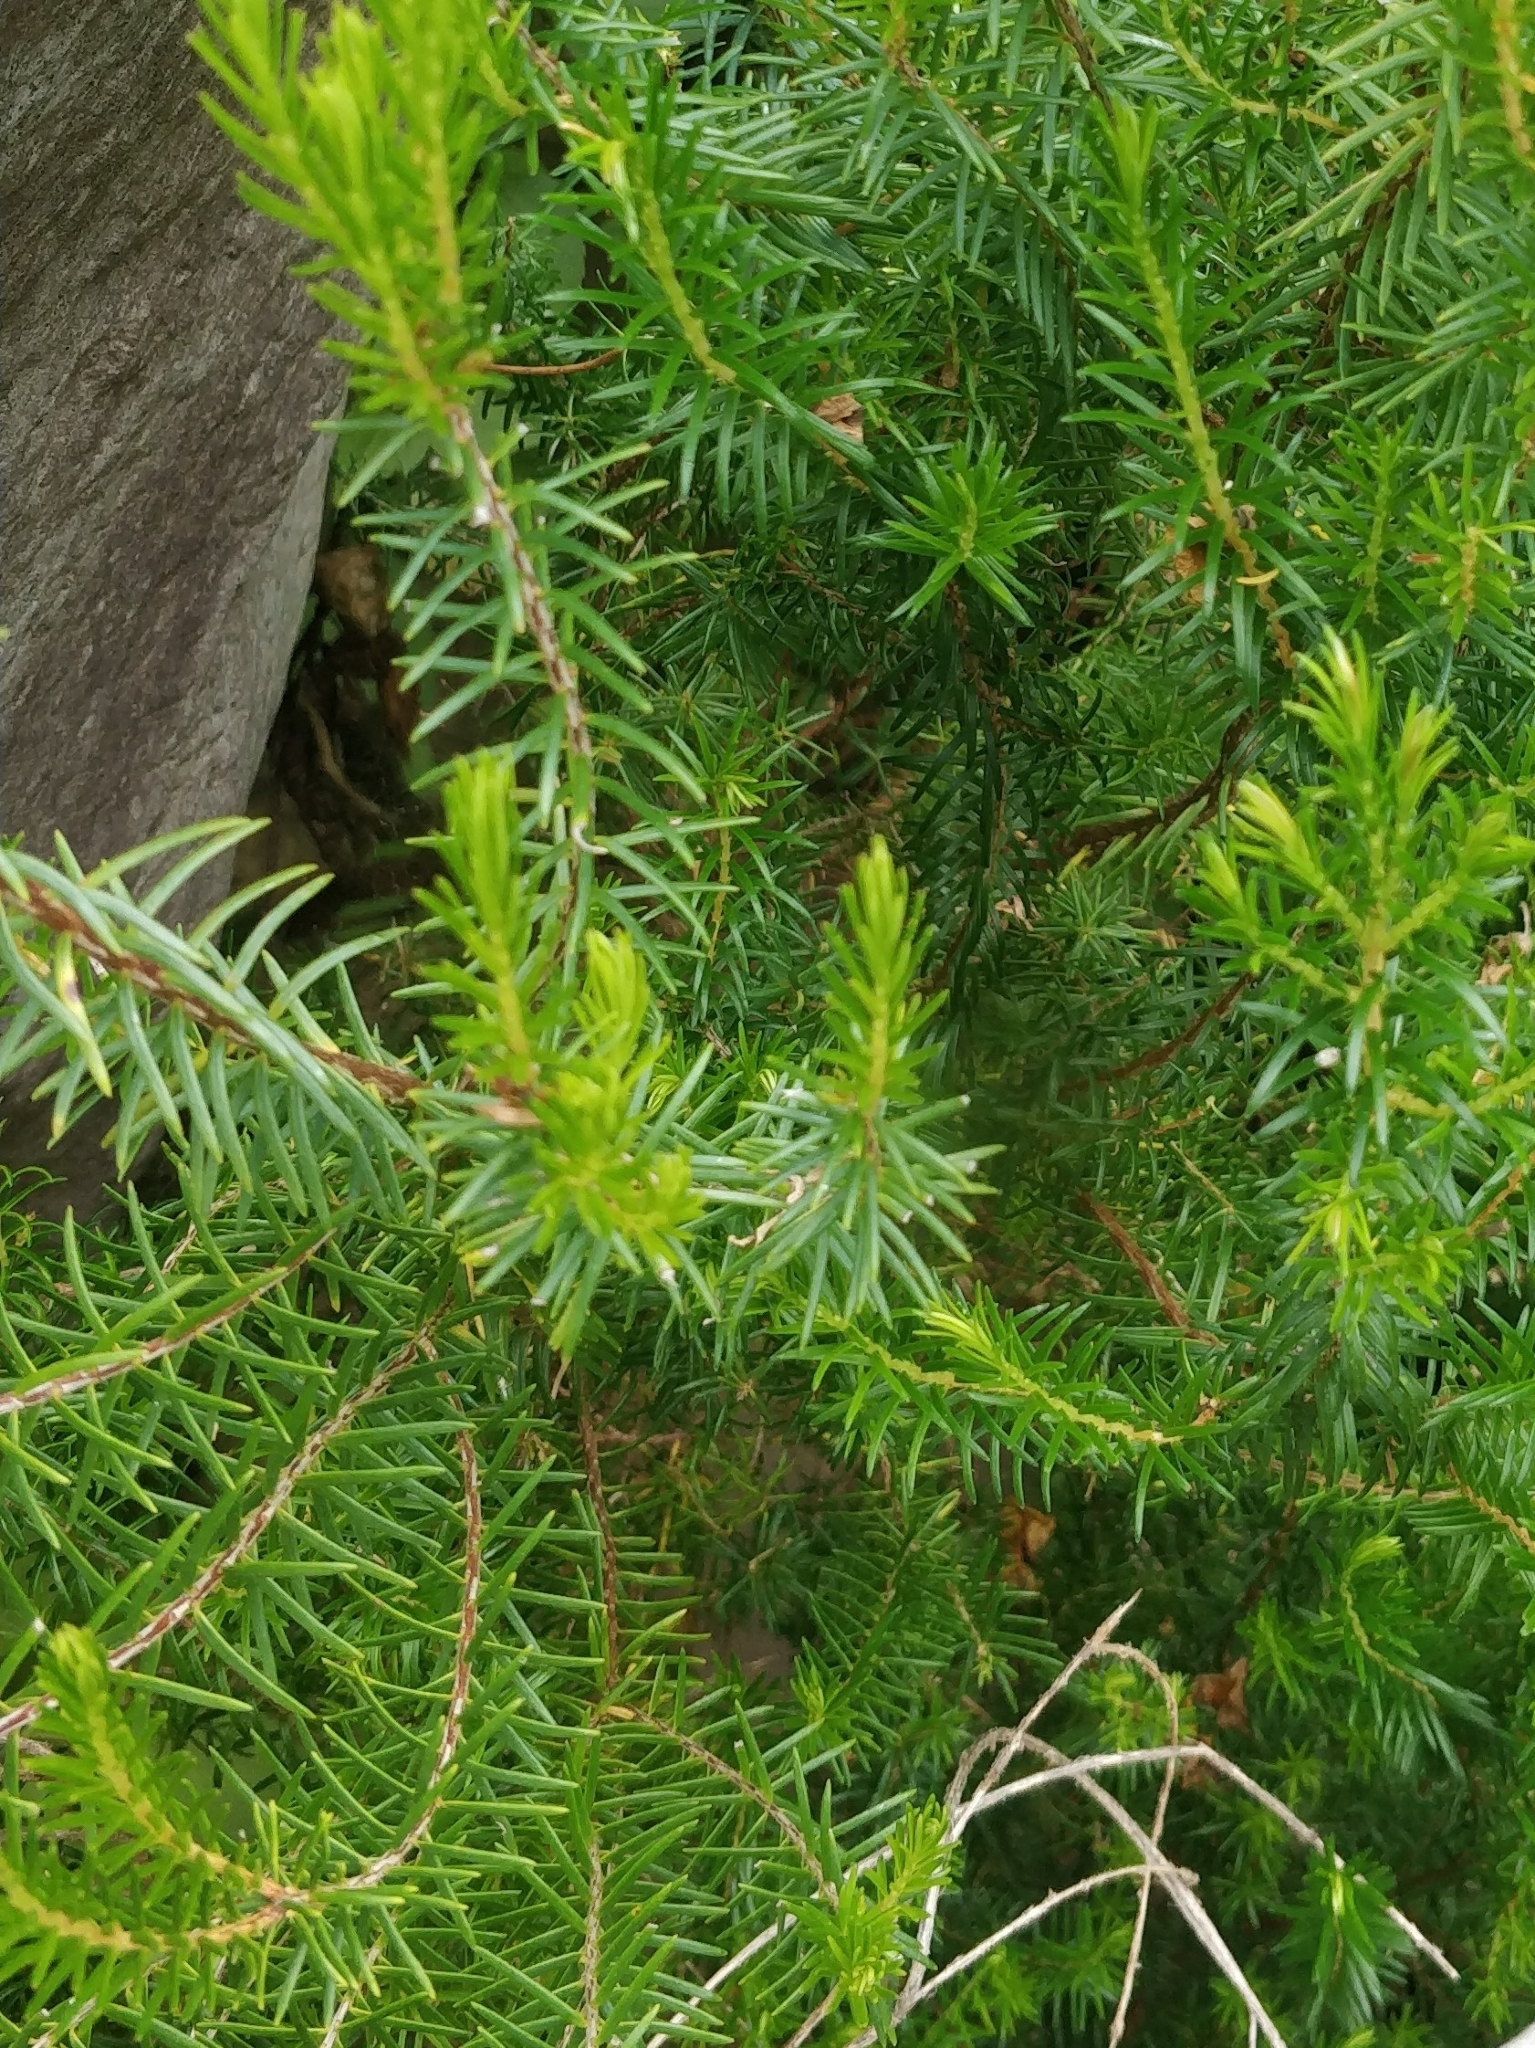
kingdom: Plantae
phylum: Tracheophyta
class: Magnoliopsida
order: Ericales
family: Ericaceae
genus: Erica
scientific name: Erica platycodon
